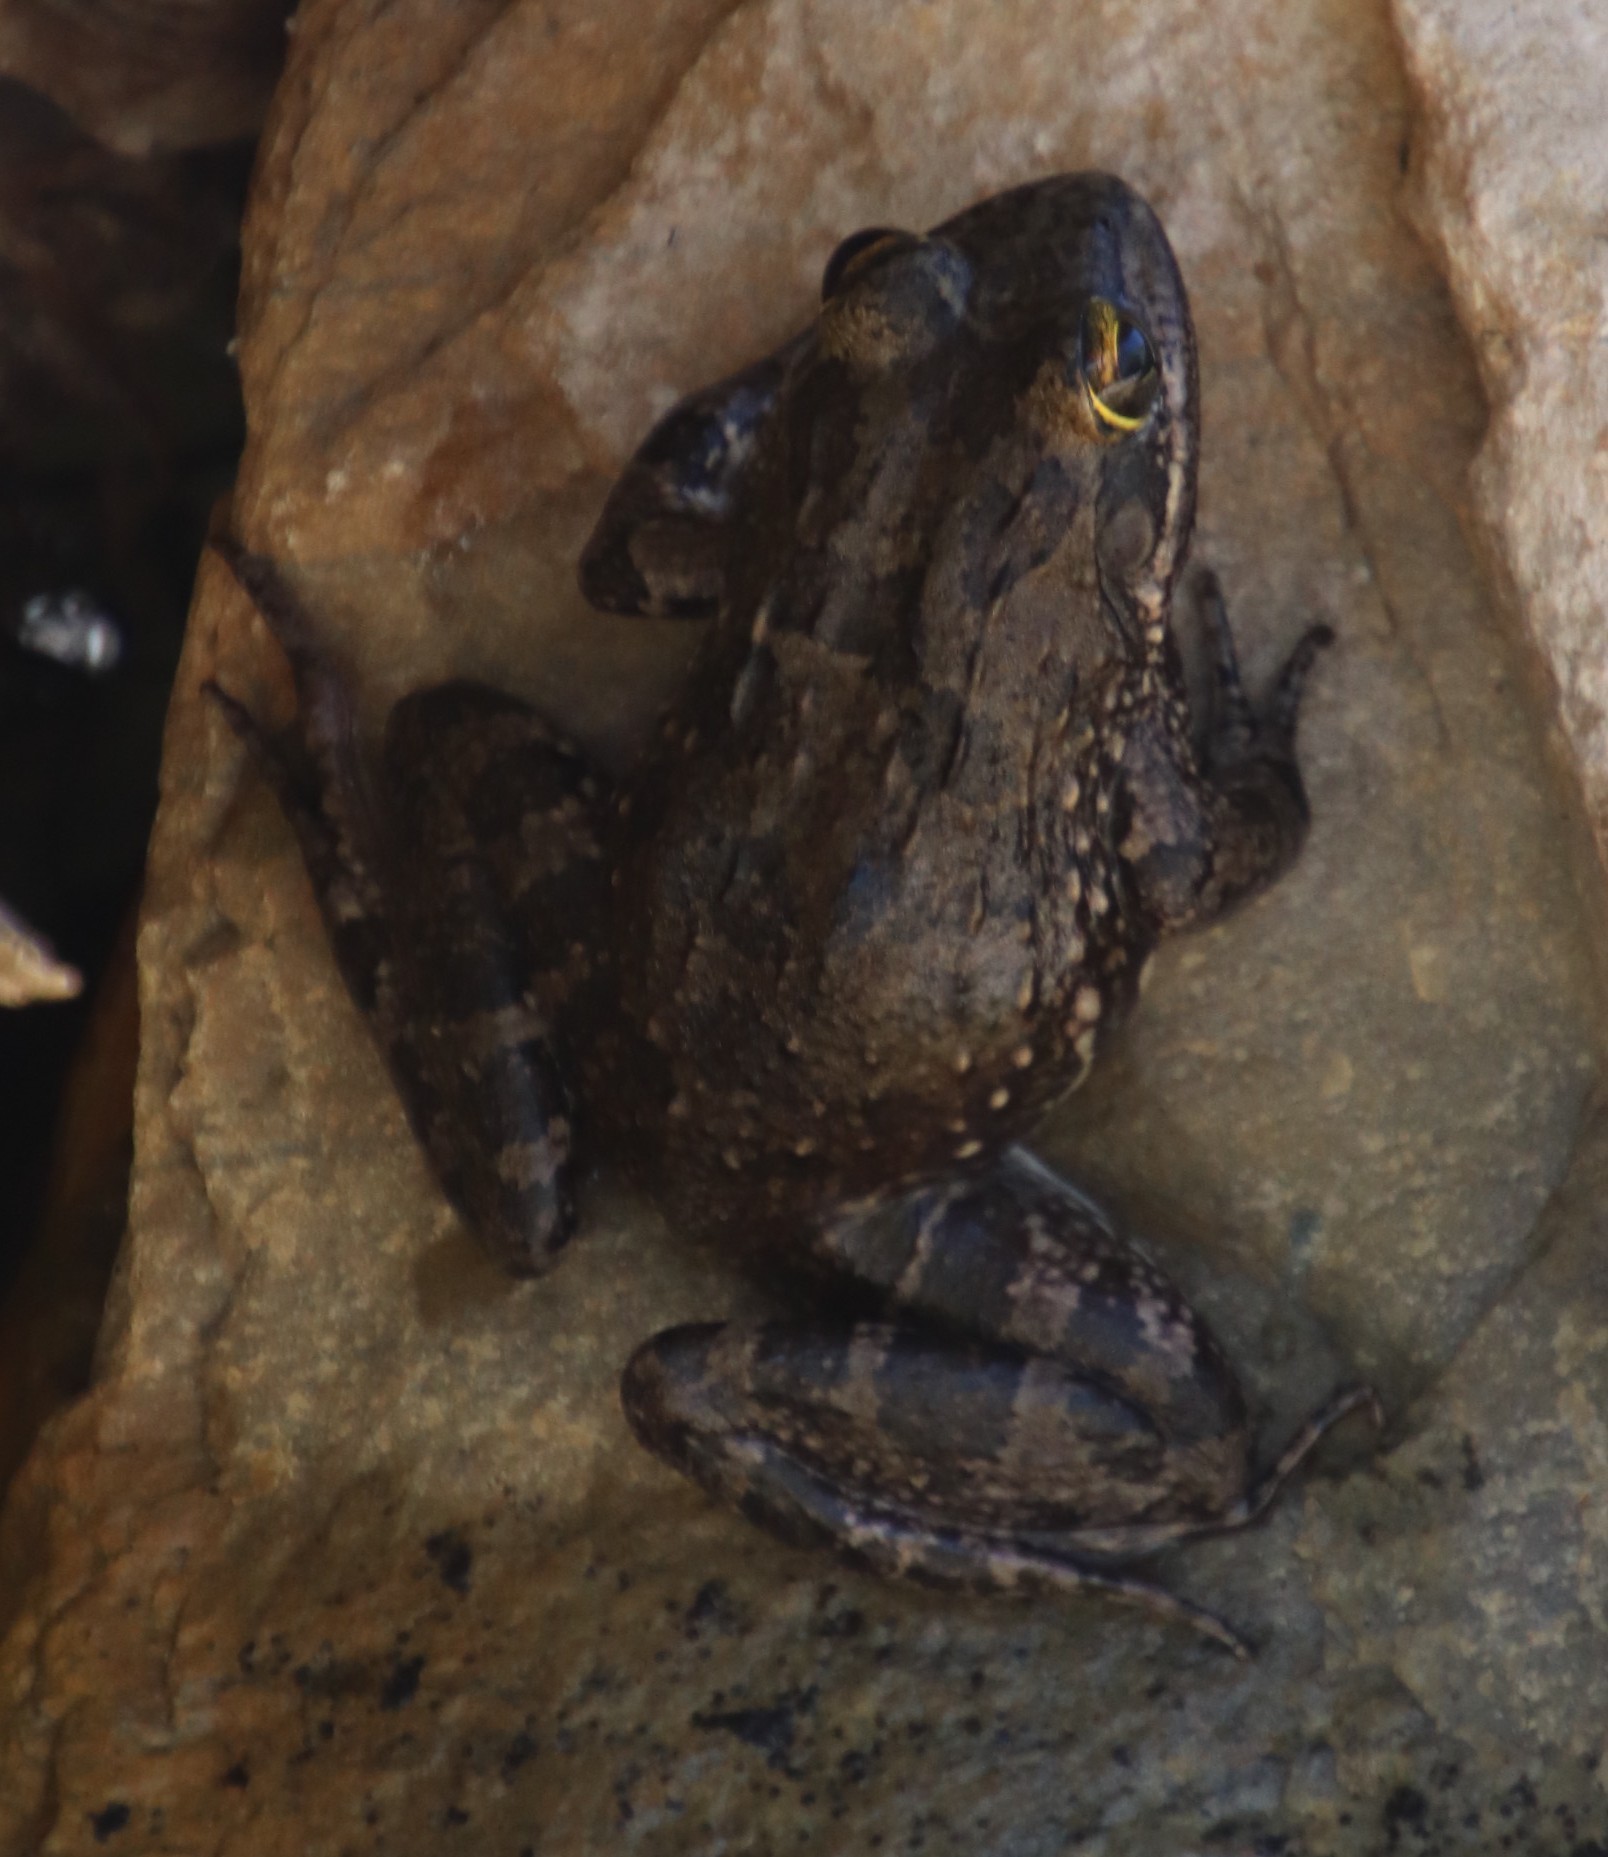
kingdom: Animalia
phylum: Chordata
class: Amphibia
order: Anura
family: Pyxicephalidae
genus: Amietia
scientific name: Amietia fuscigula
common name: Cape rana
